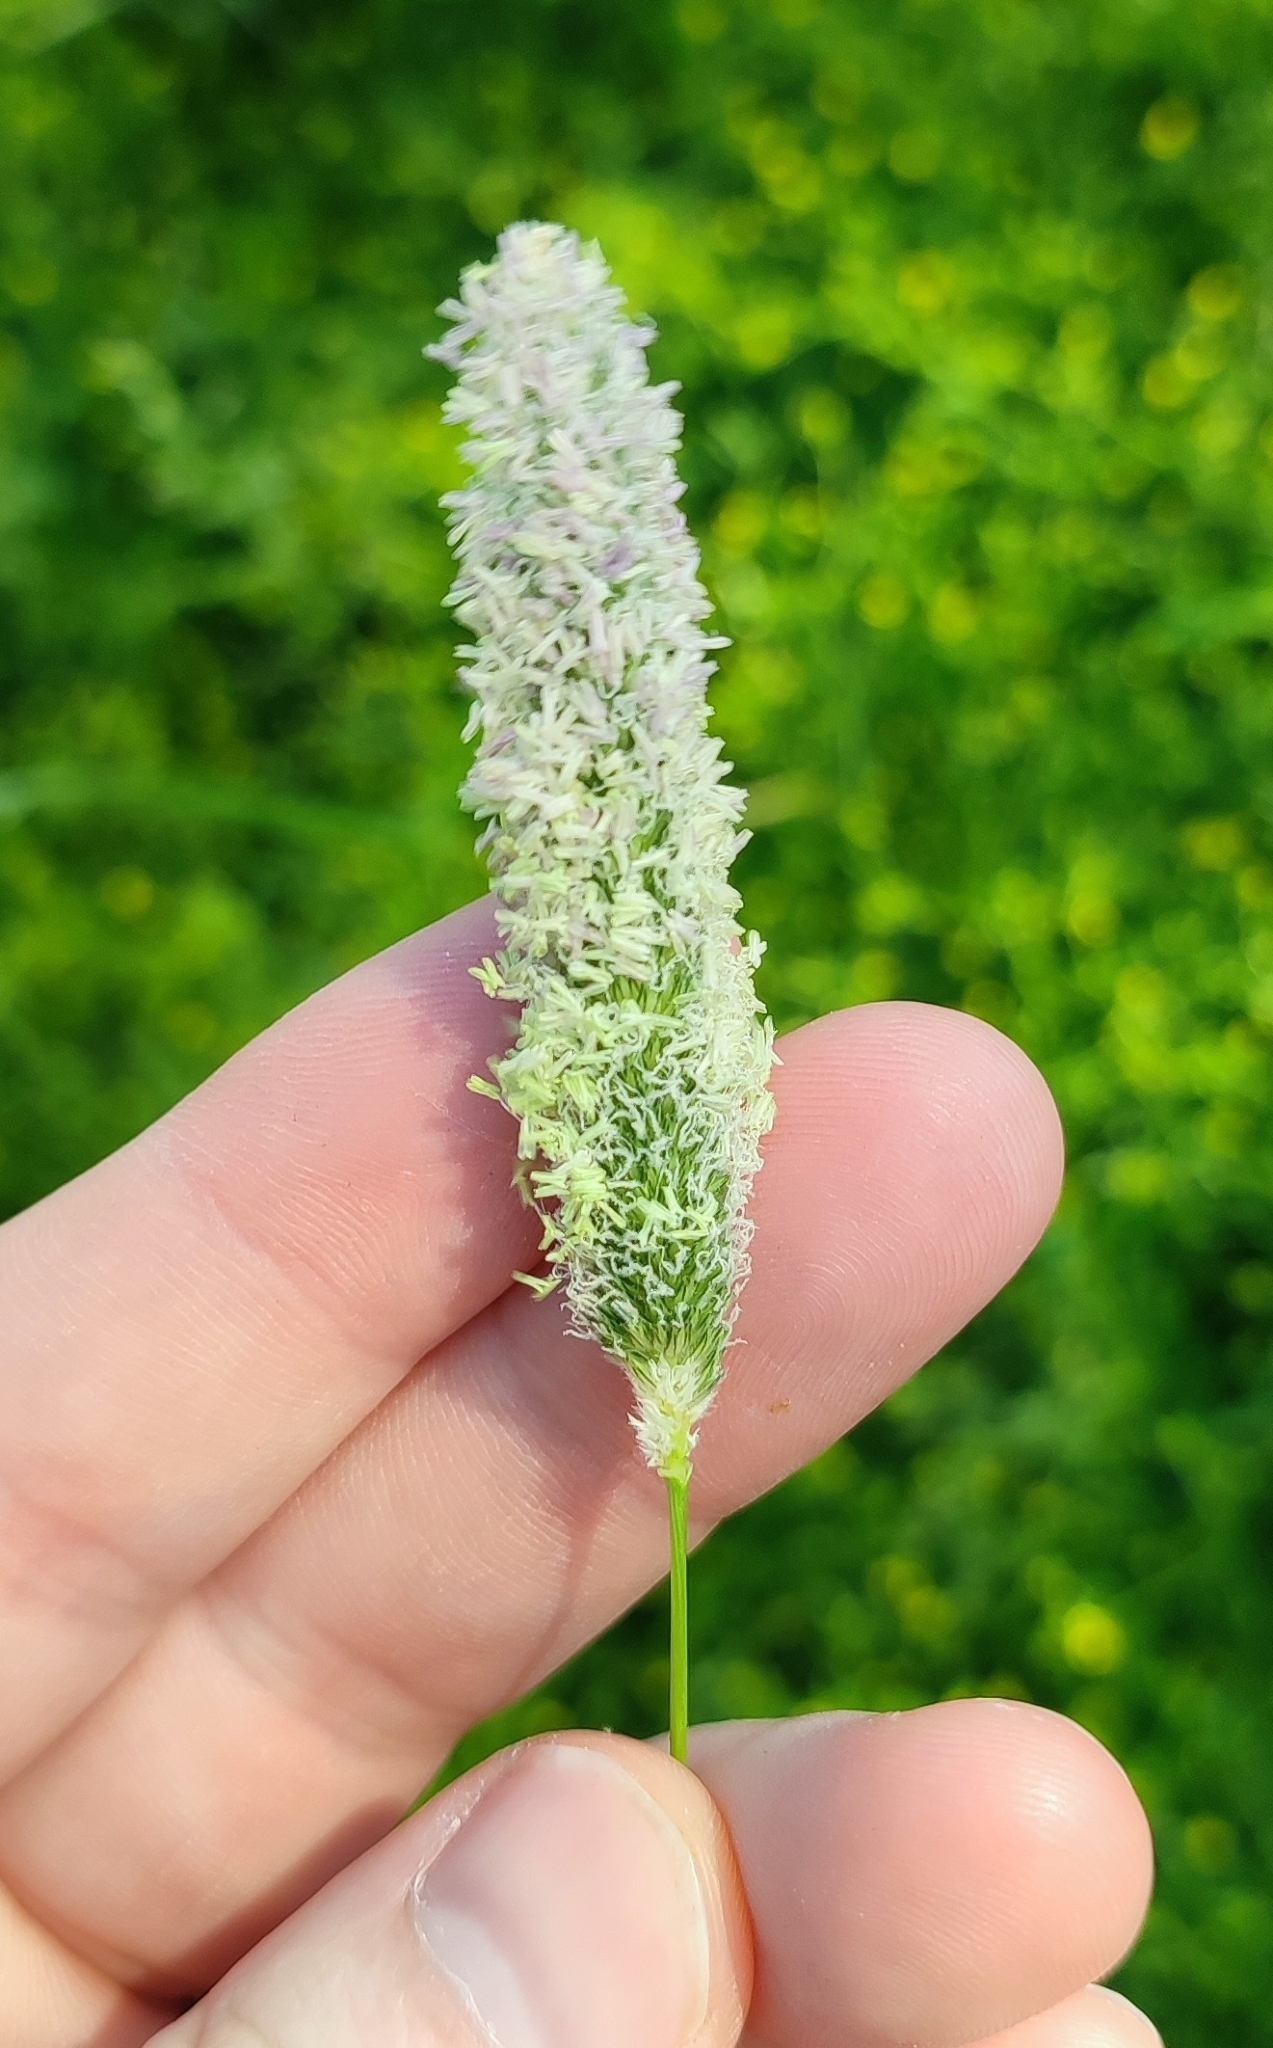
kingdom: Plantae
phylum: Tracheophyta
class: Liliopsida
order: Poales
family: Poaceae
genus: Alopecurus
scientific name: Alopecurus pratensis
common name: Meadow foxtail
